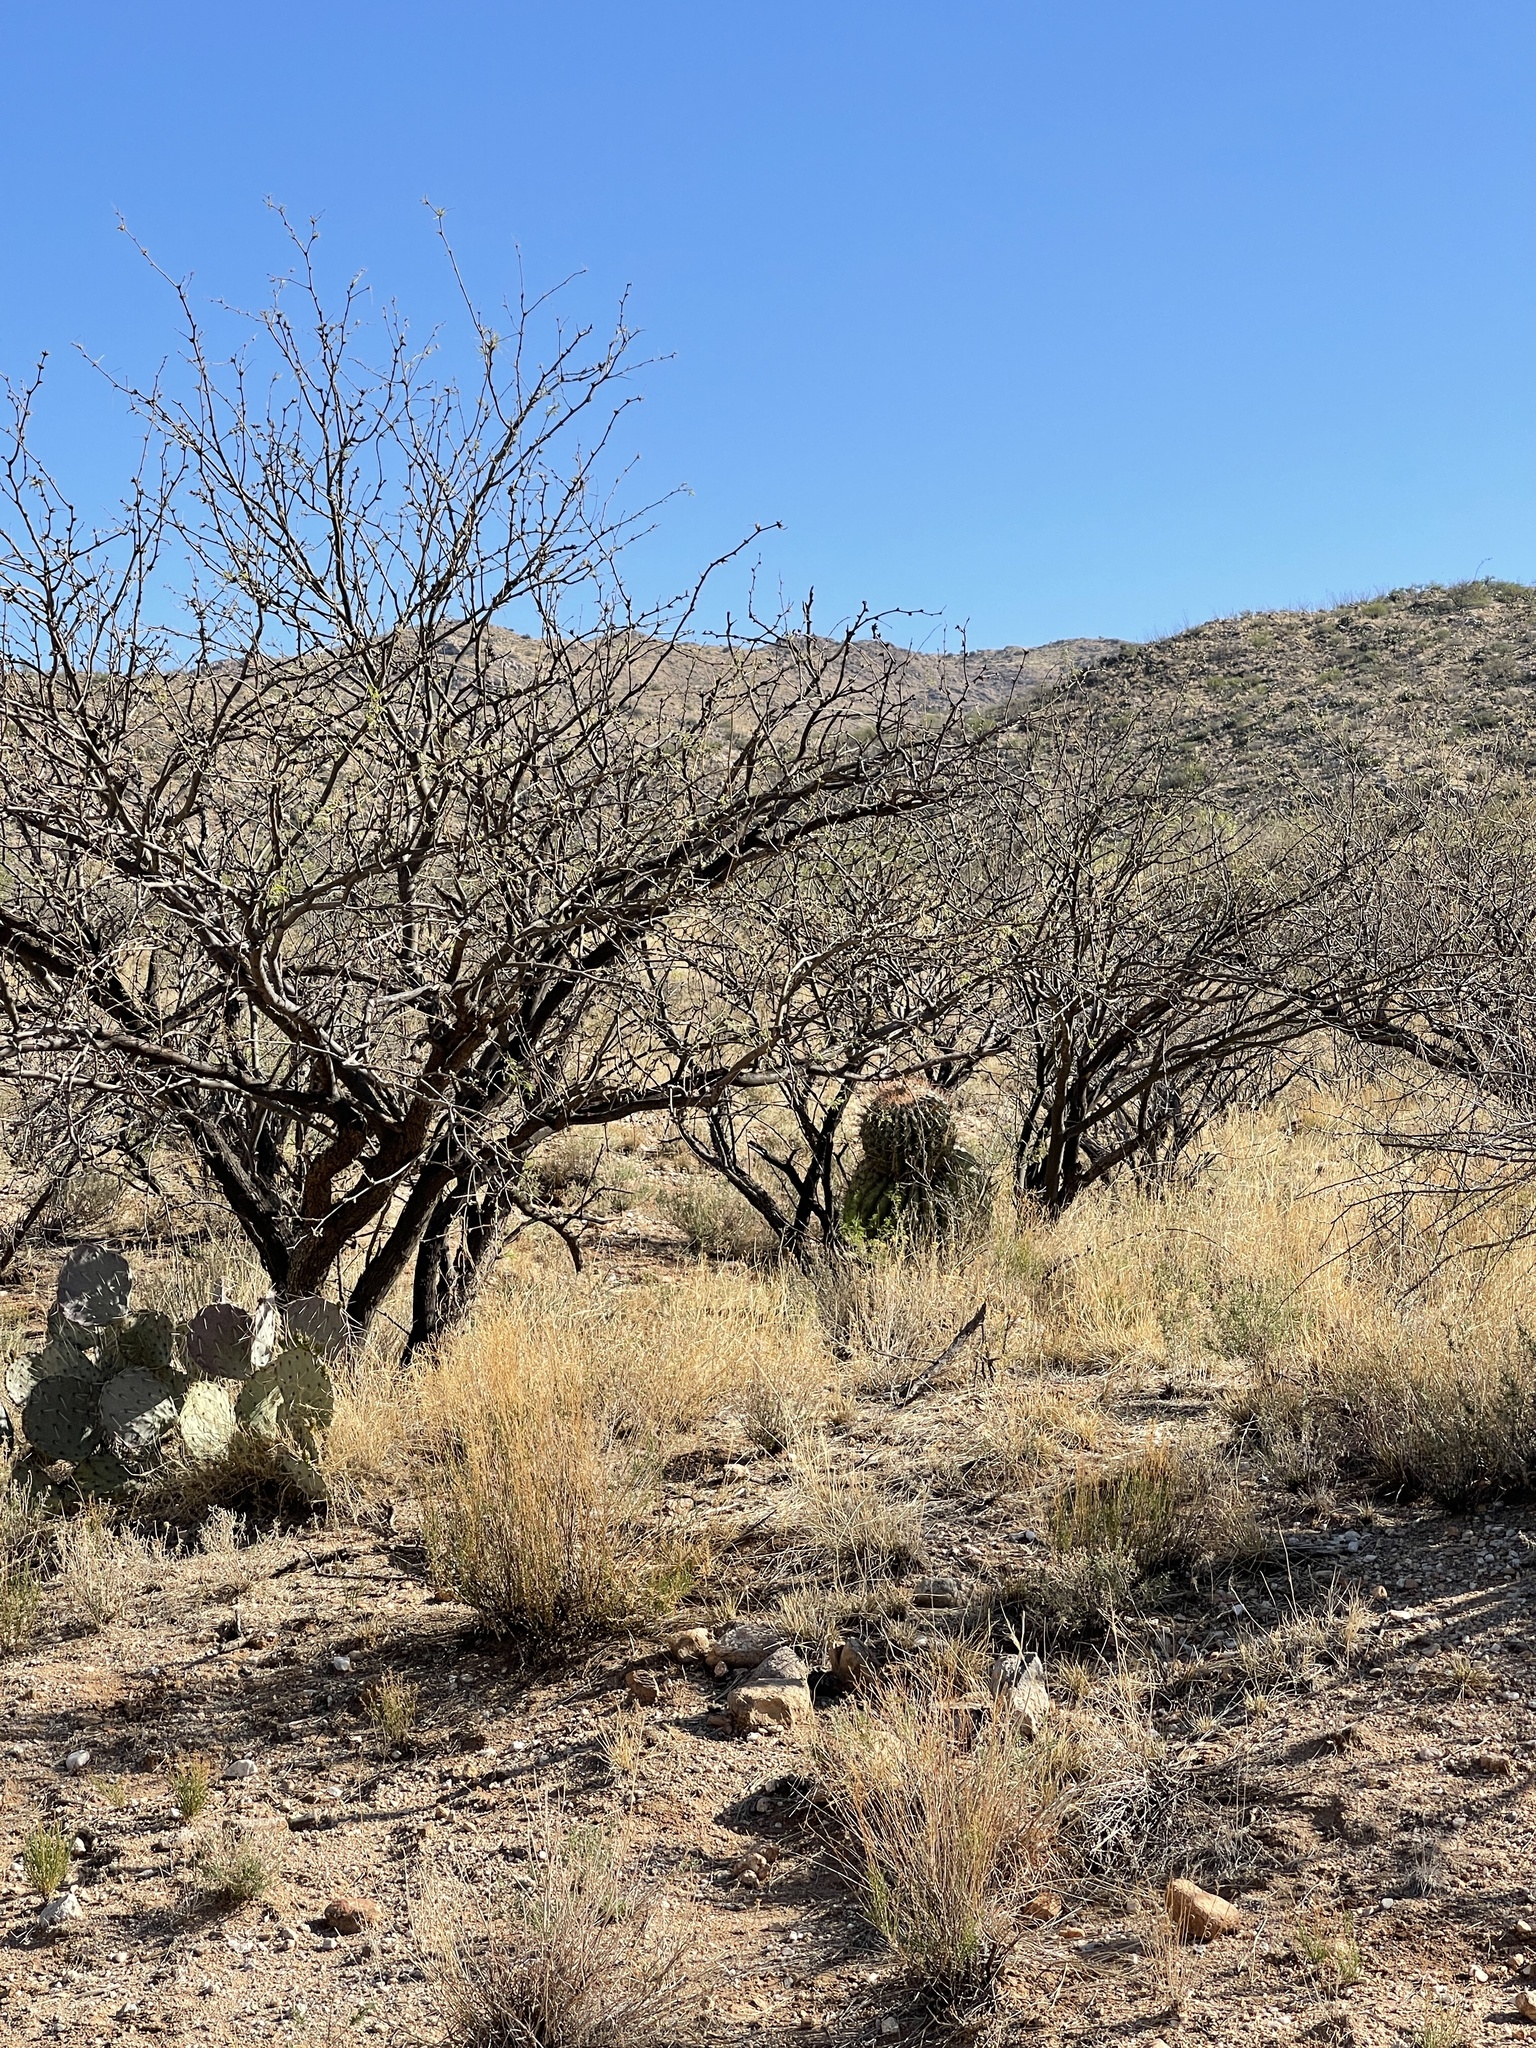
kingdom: Plantae
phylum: Tracheophyta
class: Magnoliopsida
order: Caryophyllales
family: Cactaceae
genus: Ferocactus
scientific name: Ferocactus wislizeni
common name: Candy barrel cactus
